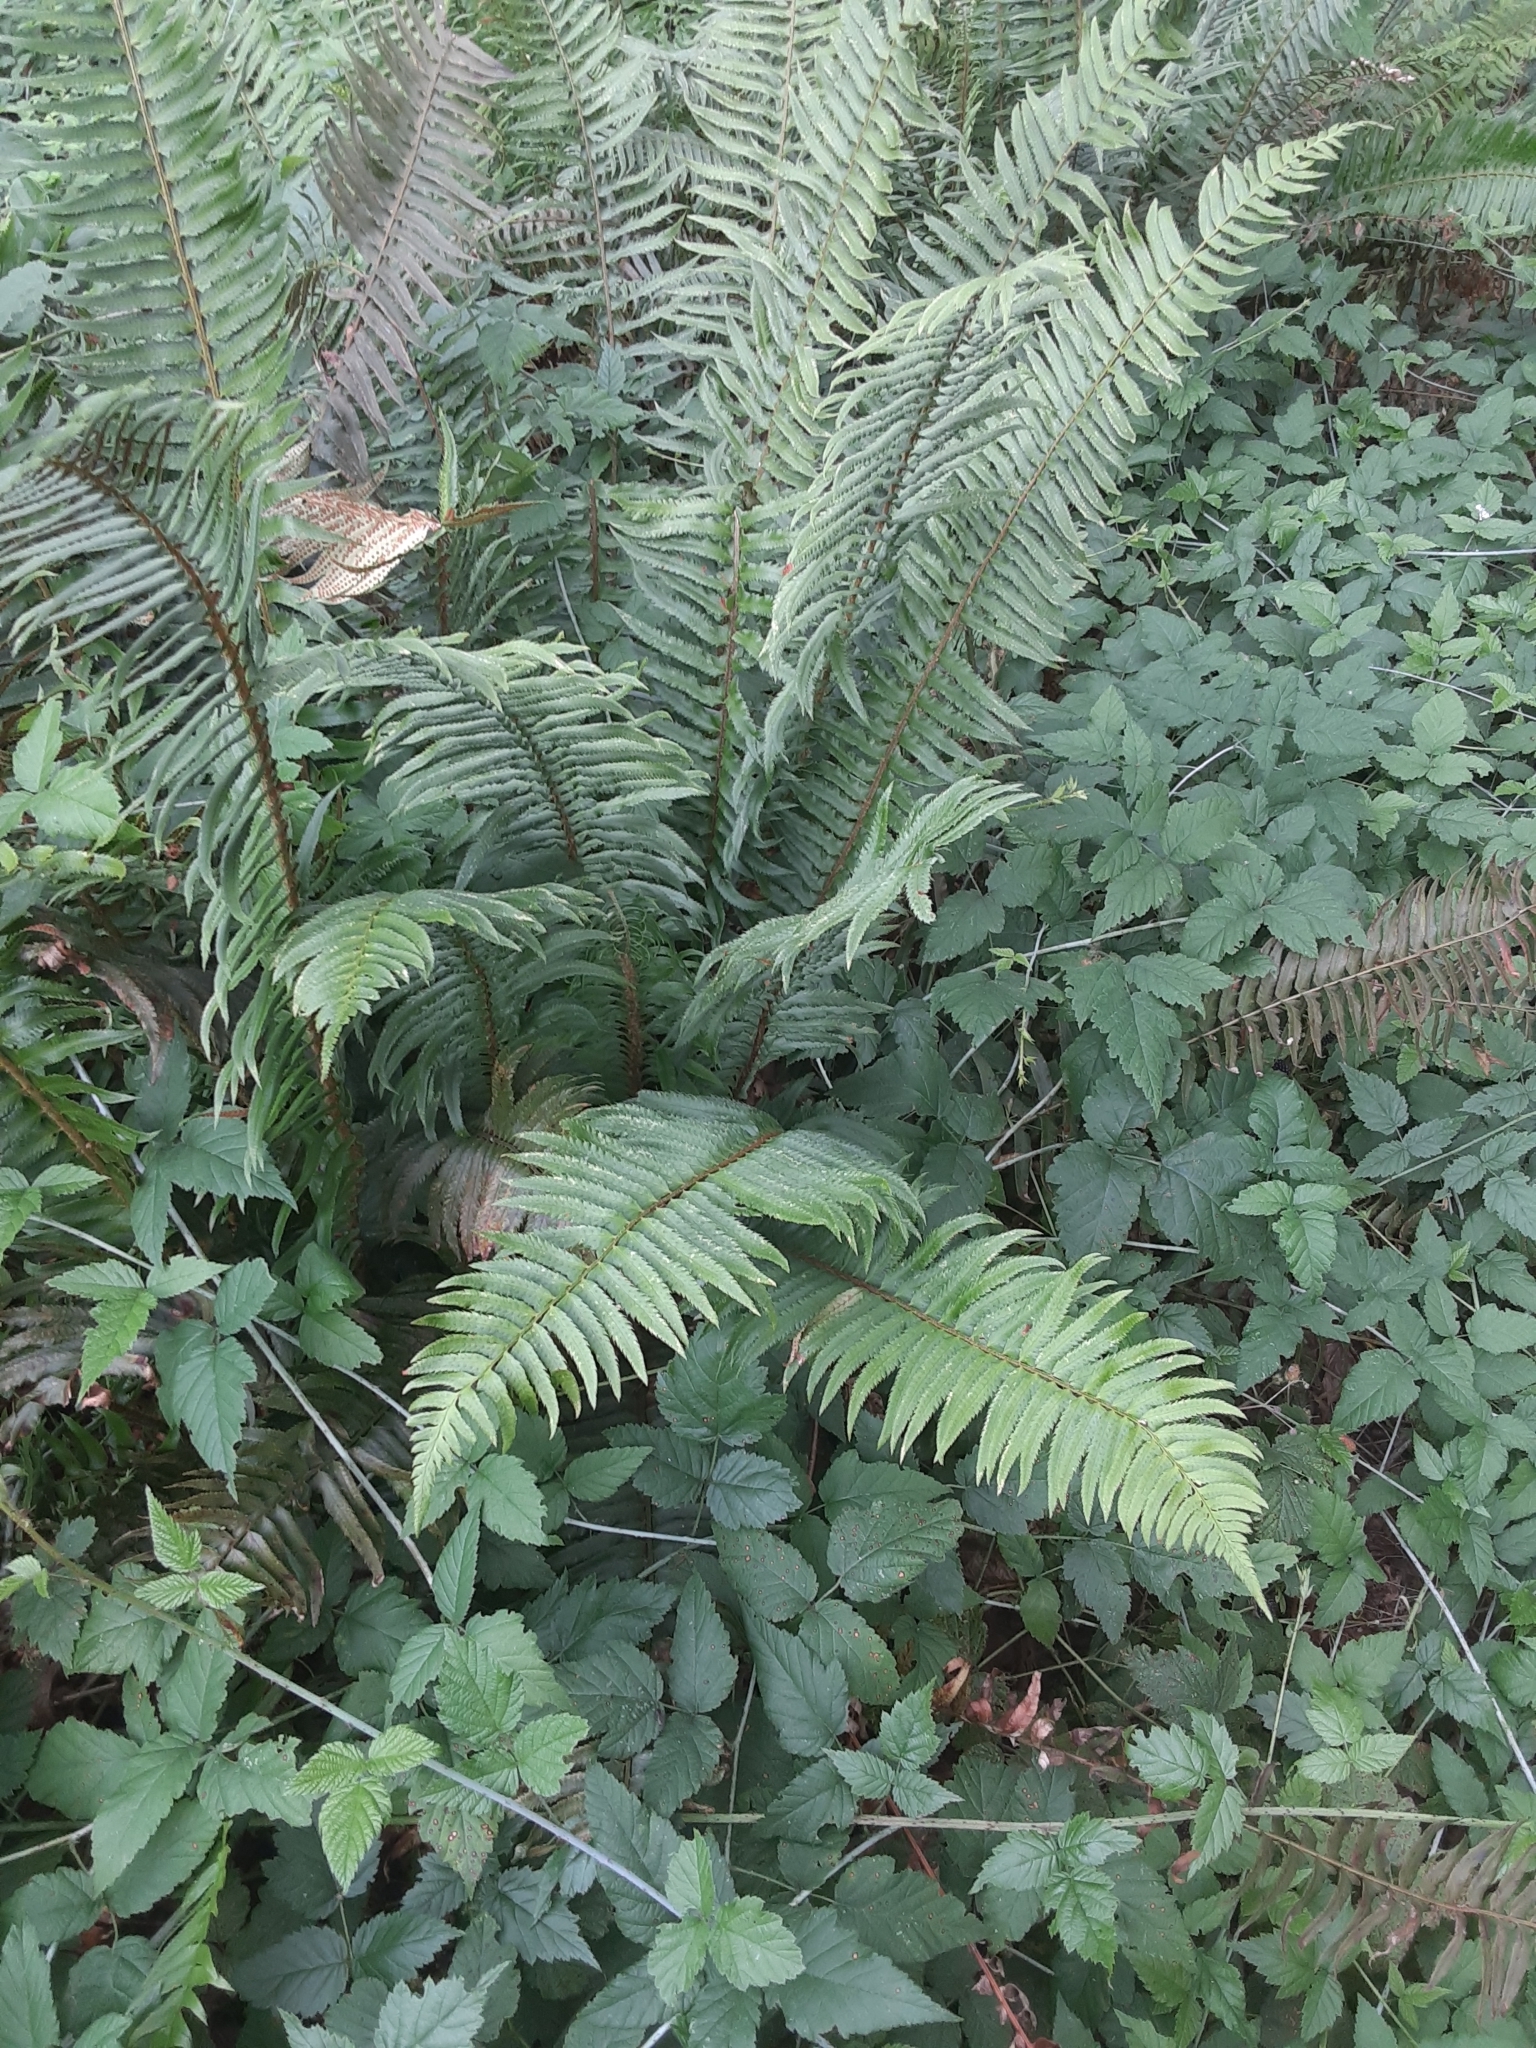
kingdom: Plantae
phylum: Tracheophyta
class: Polypodiopsida
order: Polypodiales
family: Dryopteridaceae
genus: Polystichum
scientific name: Polystichum munitum
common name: Western sword-fern
